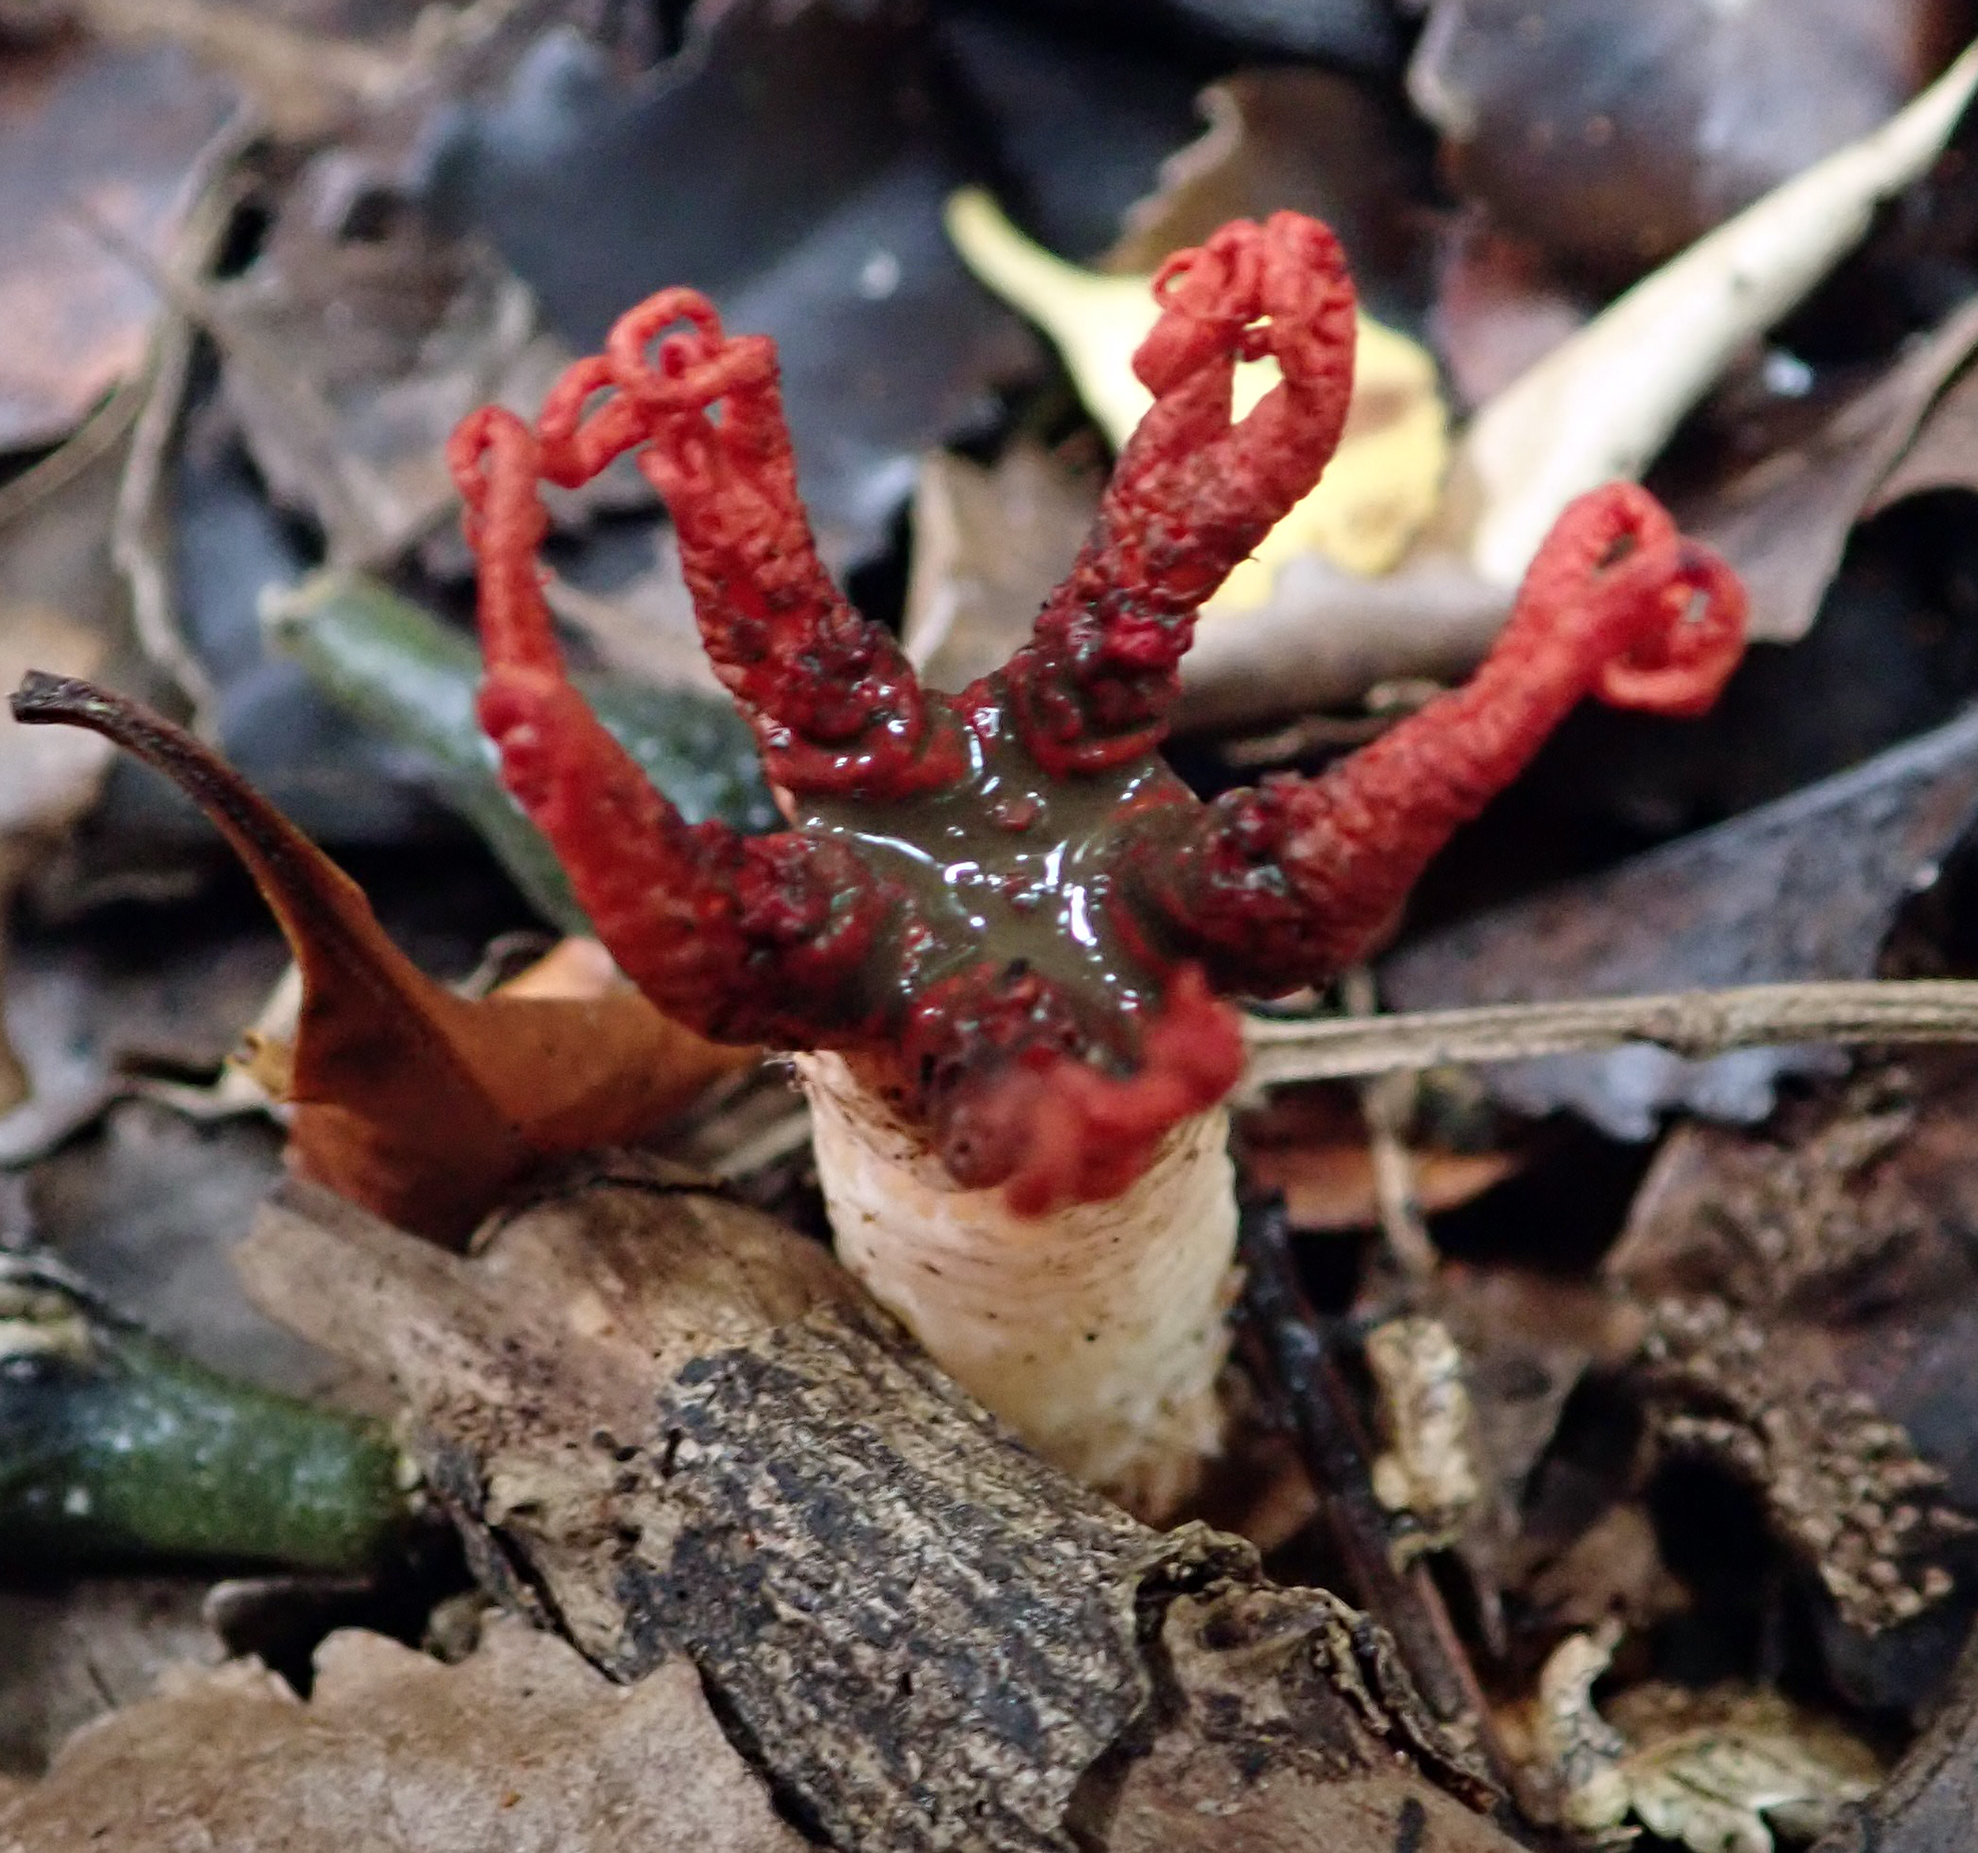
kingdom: Fungi
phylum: Basidiomycota
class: Agaricomycetes
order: Phallales
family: Phallaceae
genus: Aseroe
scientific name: Aseroe rubra
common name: Starfish fungus
